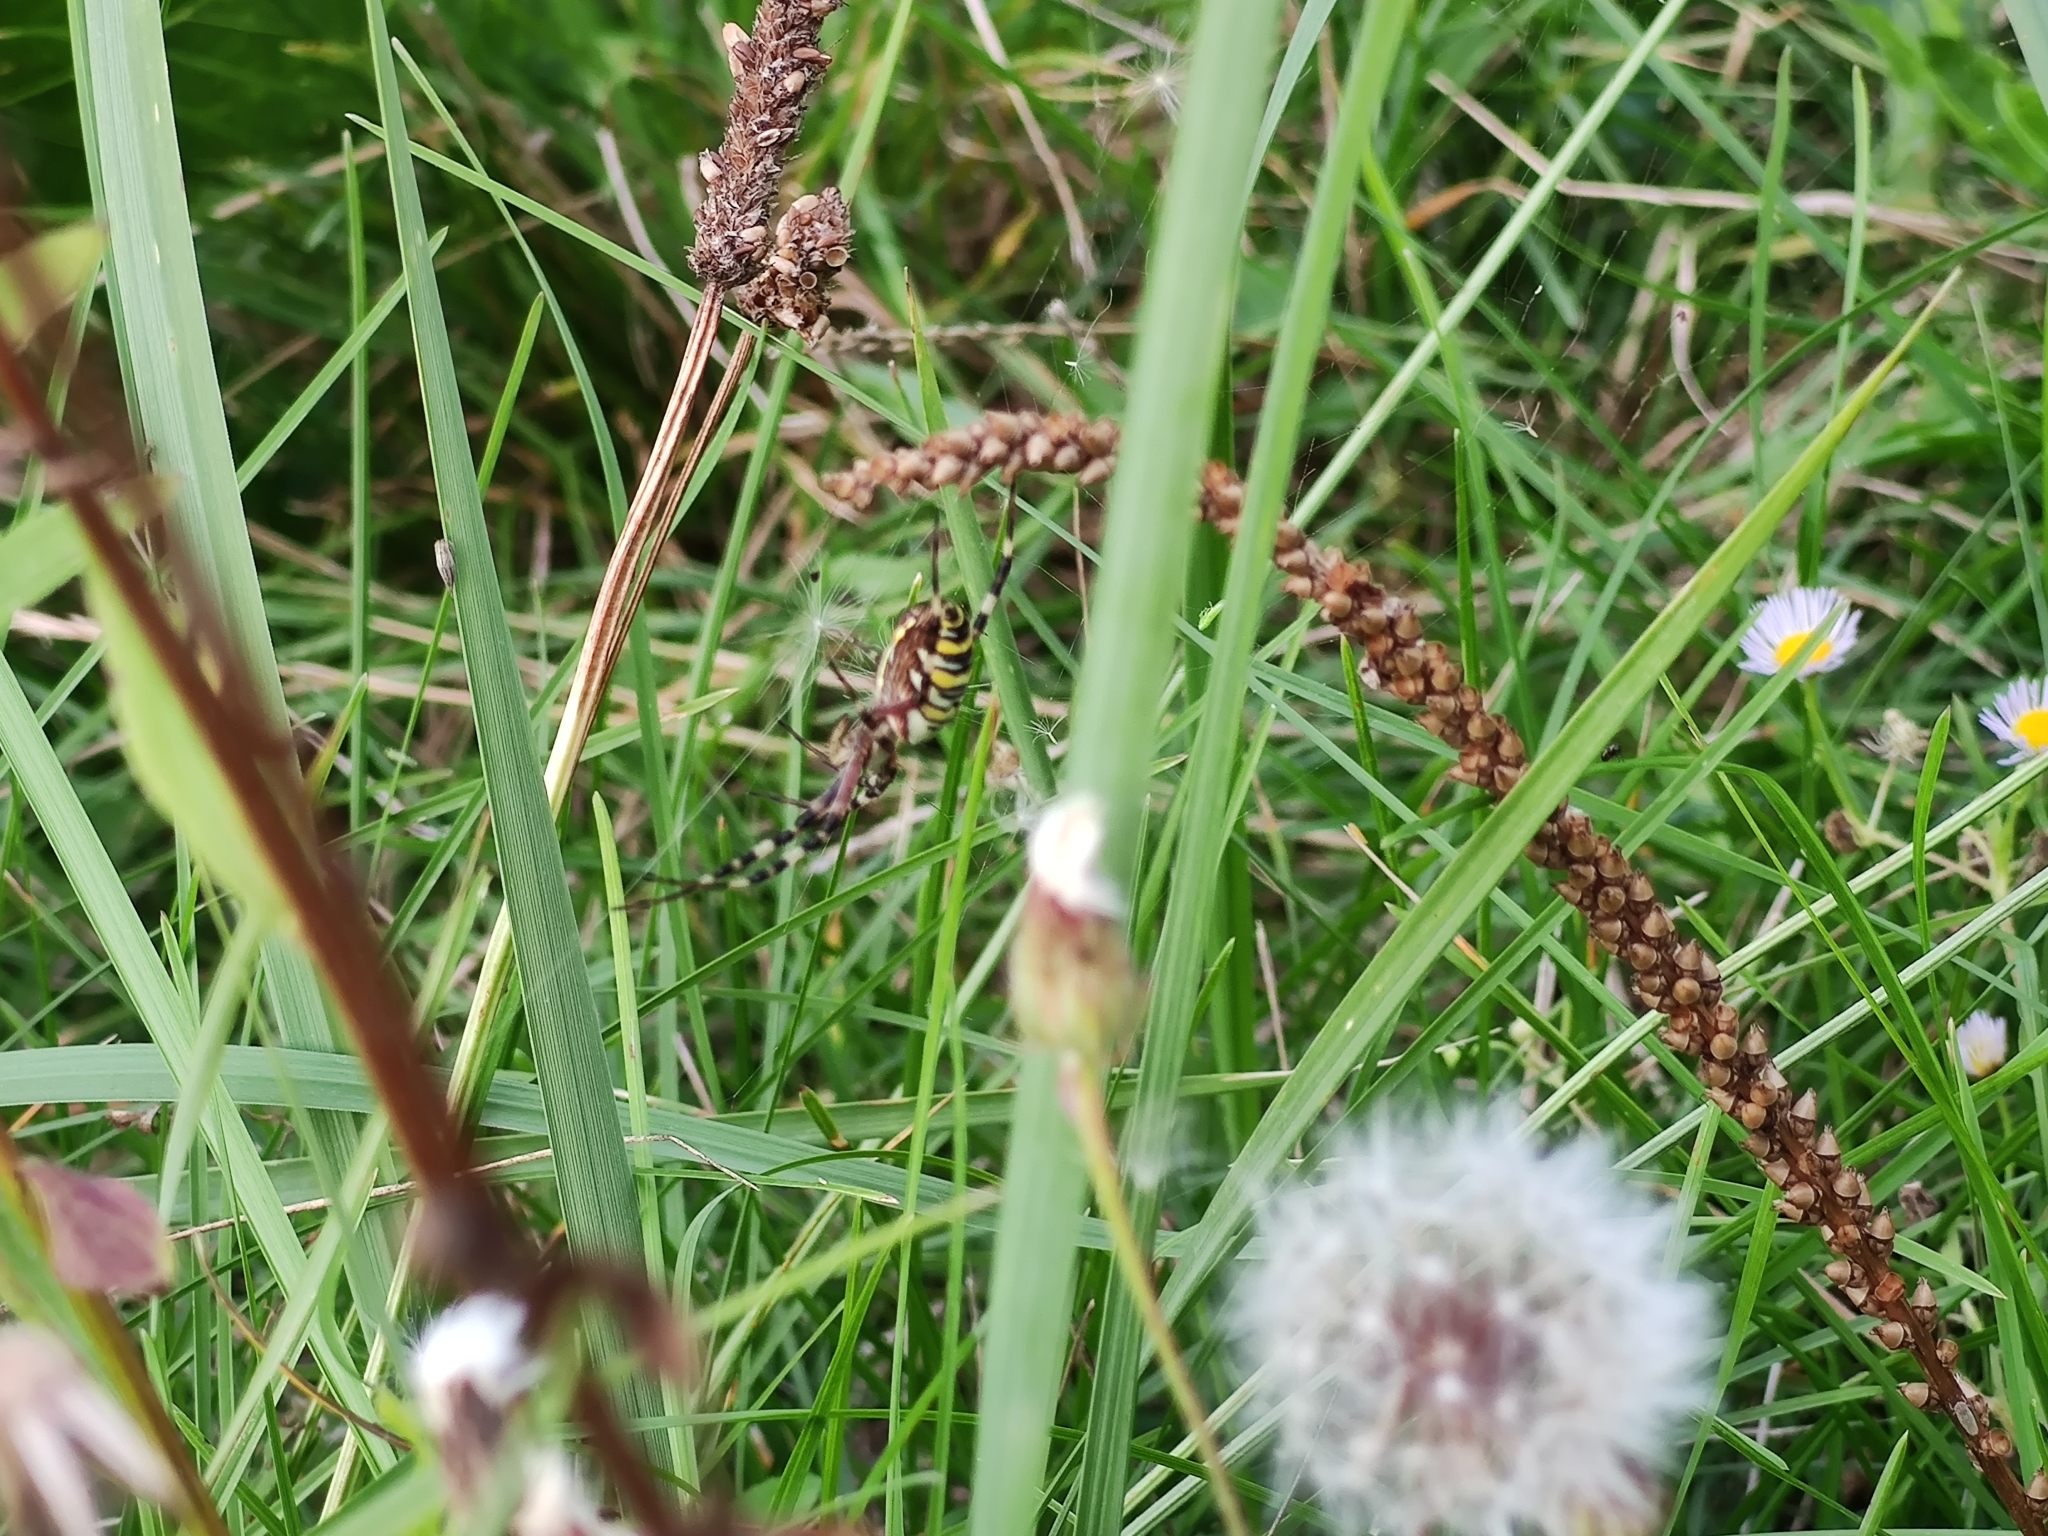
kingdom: Animalia
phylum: Arthropoda
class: Arachnida
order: Araneae
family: Araneidae
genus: Argiope
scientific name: Argiope bruennichi
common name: Wasp spider
